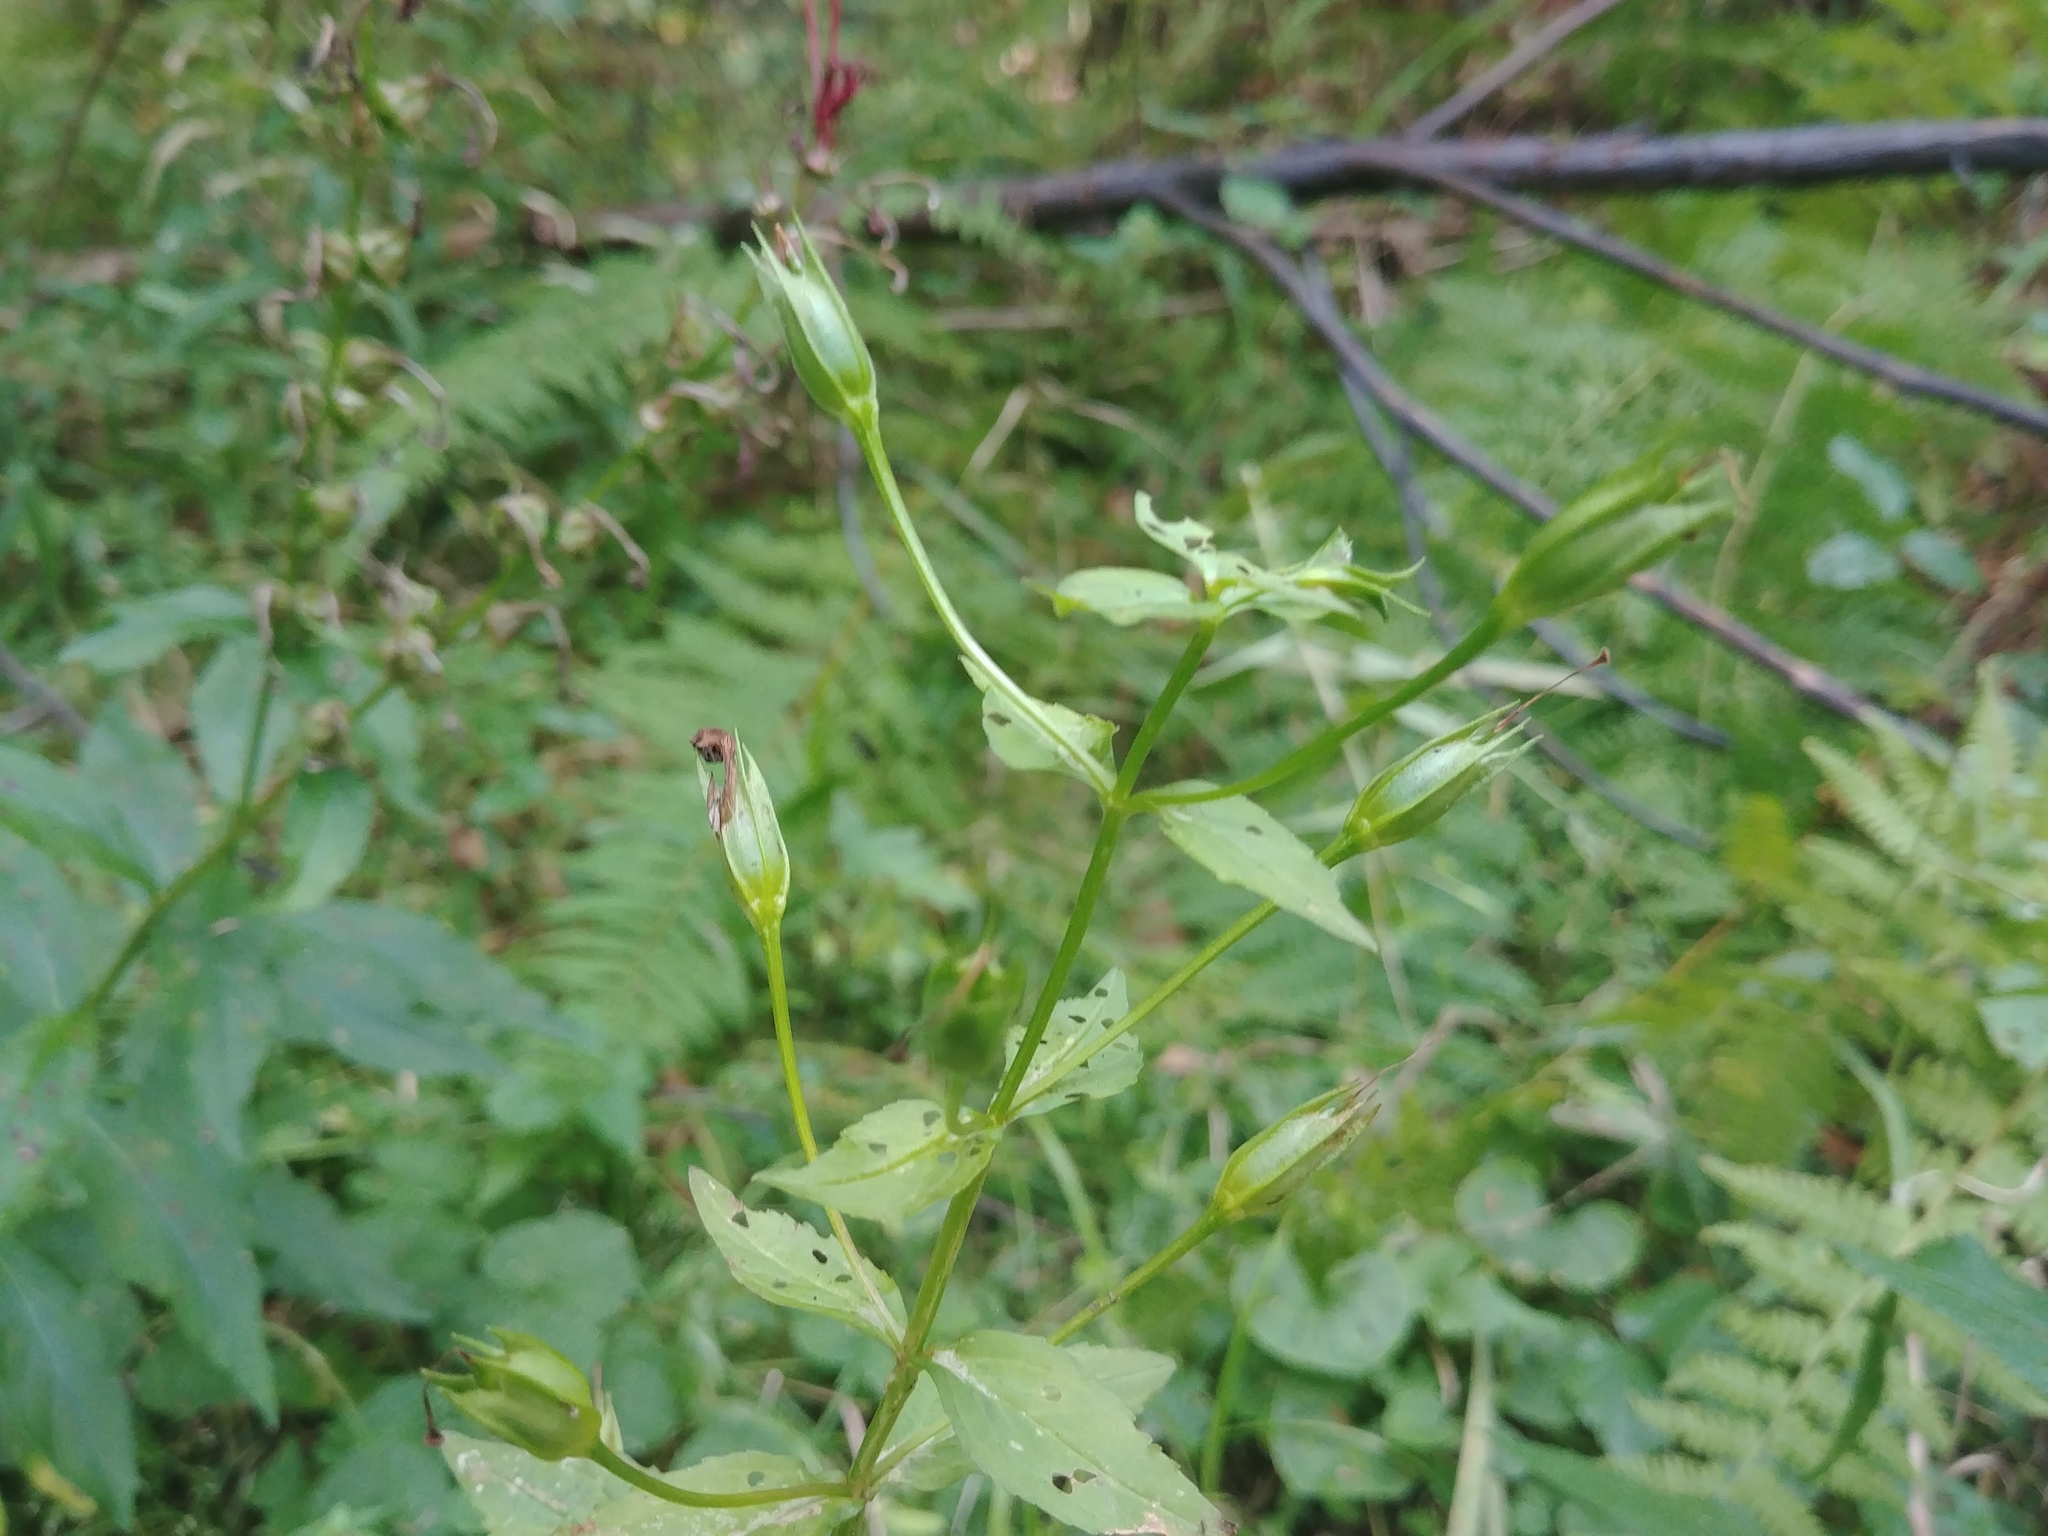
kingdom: Plantae
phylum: Tracheophyta
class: Magnoliopsida
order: Lamiales
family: Phrymaceae
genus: Mimulus
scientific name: Mimulus ringens
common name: Allegheny monkeyflower
